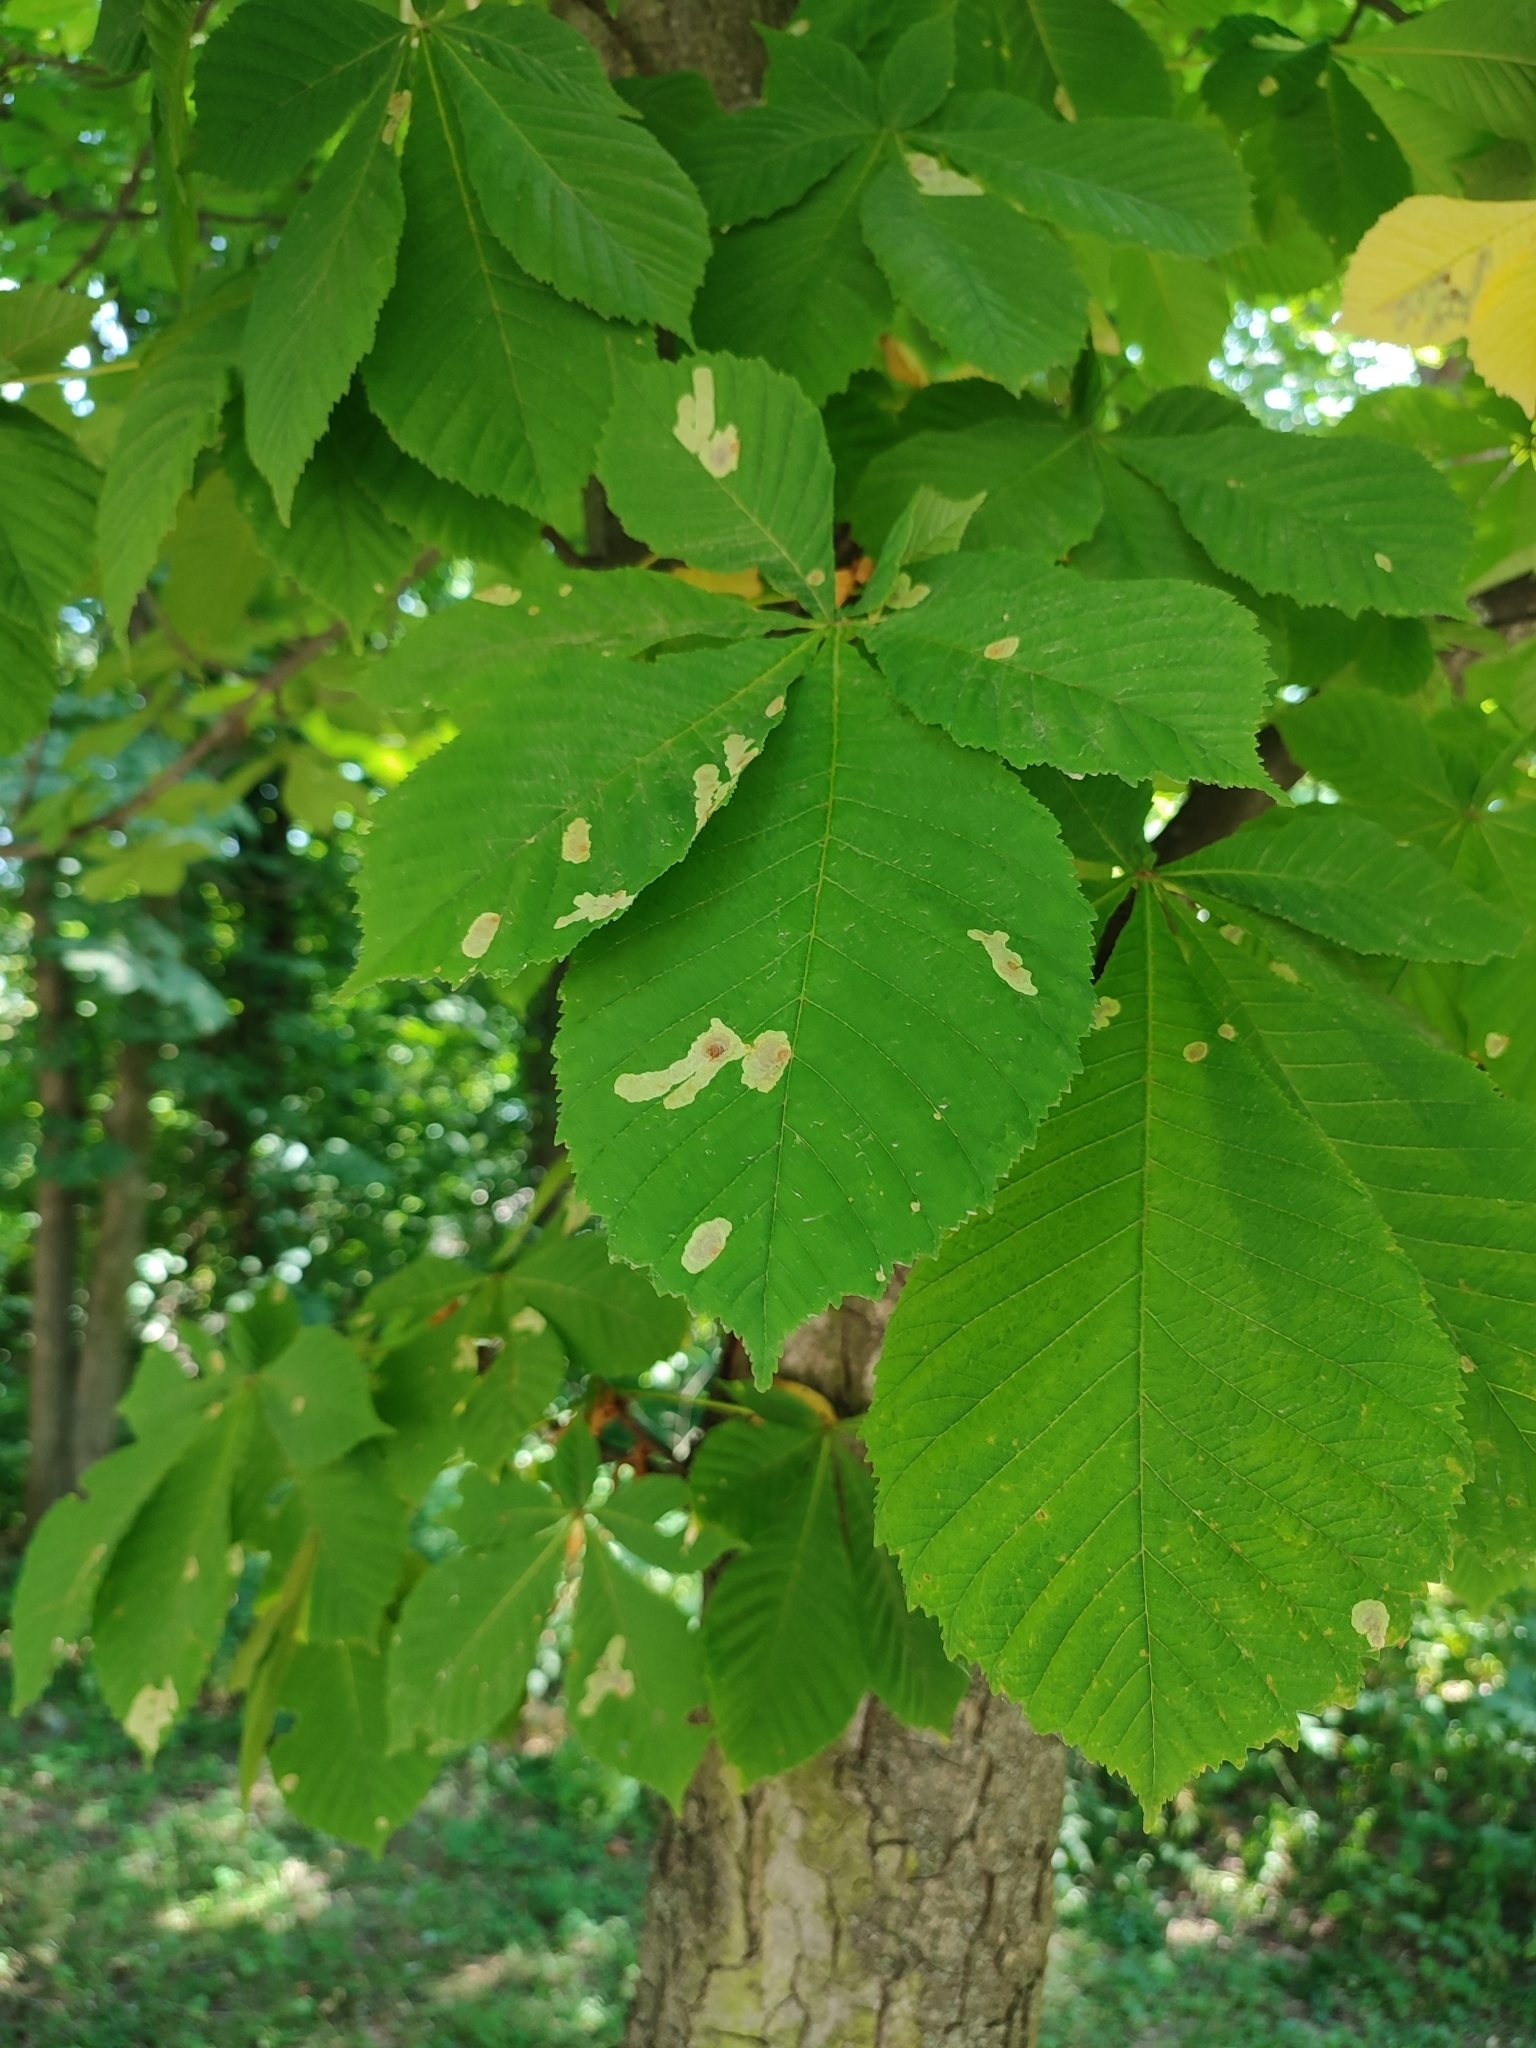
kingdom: Animalia
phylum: Arthropoda
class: Insecta
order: Lepidoptera
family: Gracillariidae
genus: Cameraria
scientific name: Cameraria ohridella
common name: Horse-chestnut leaf-miner
